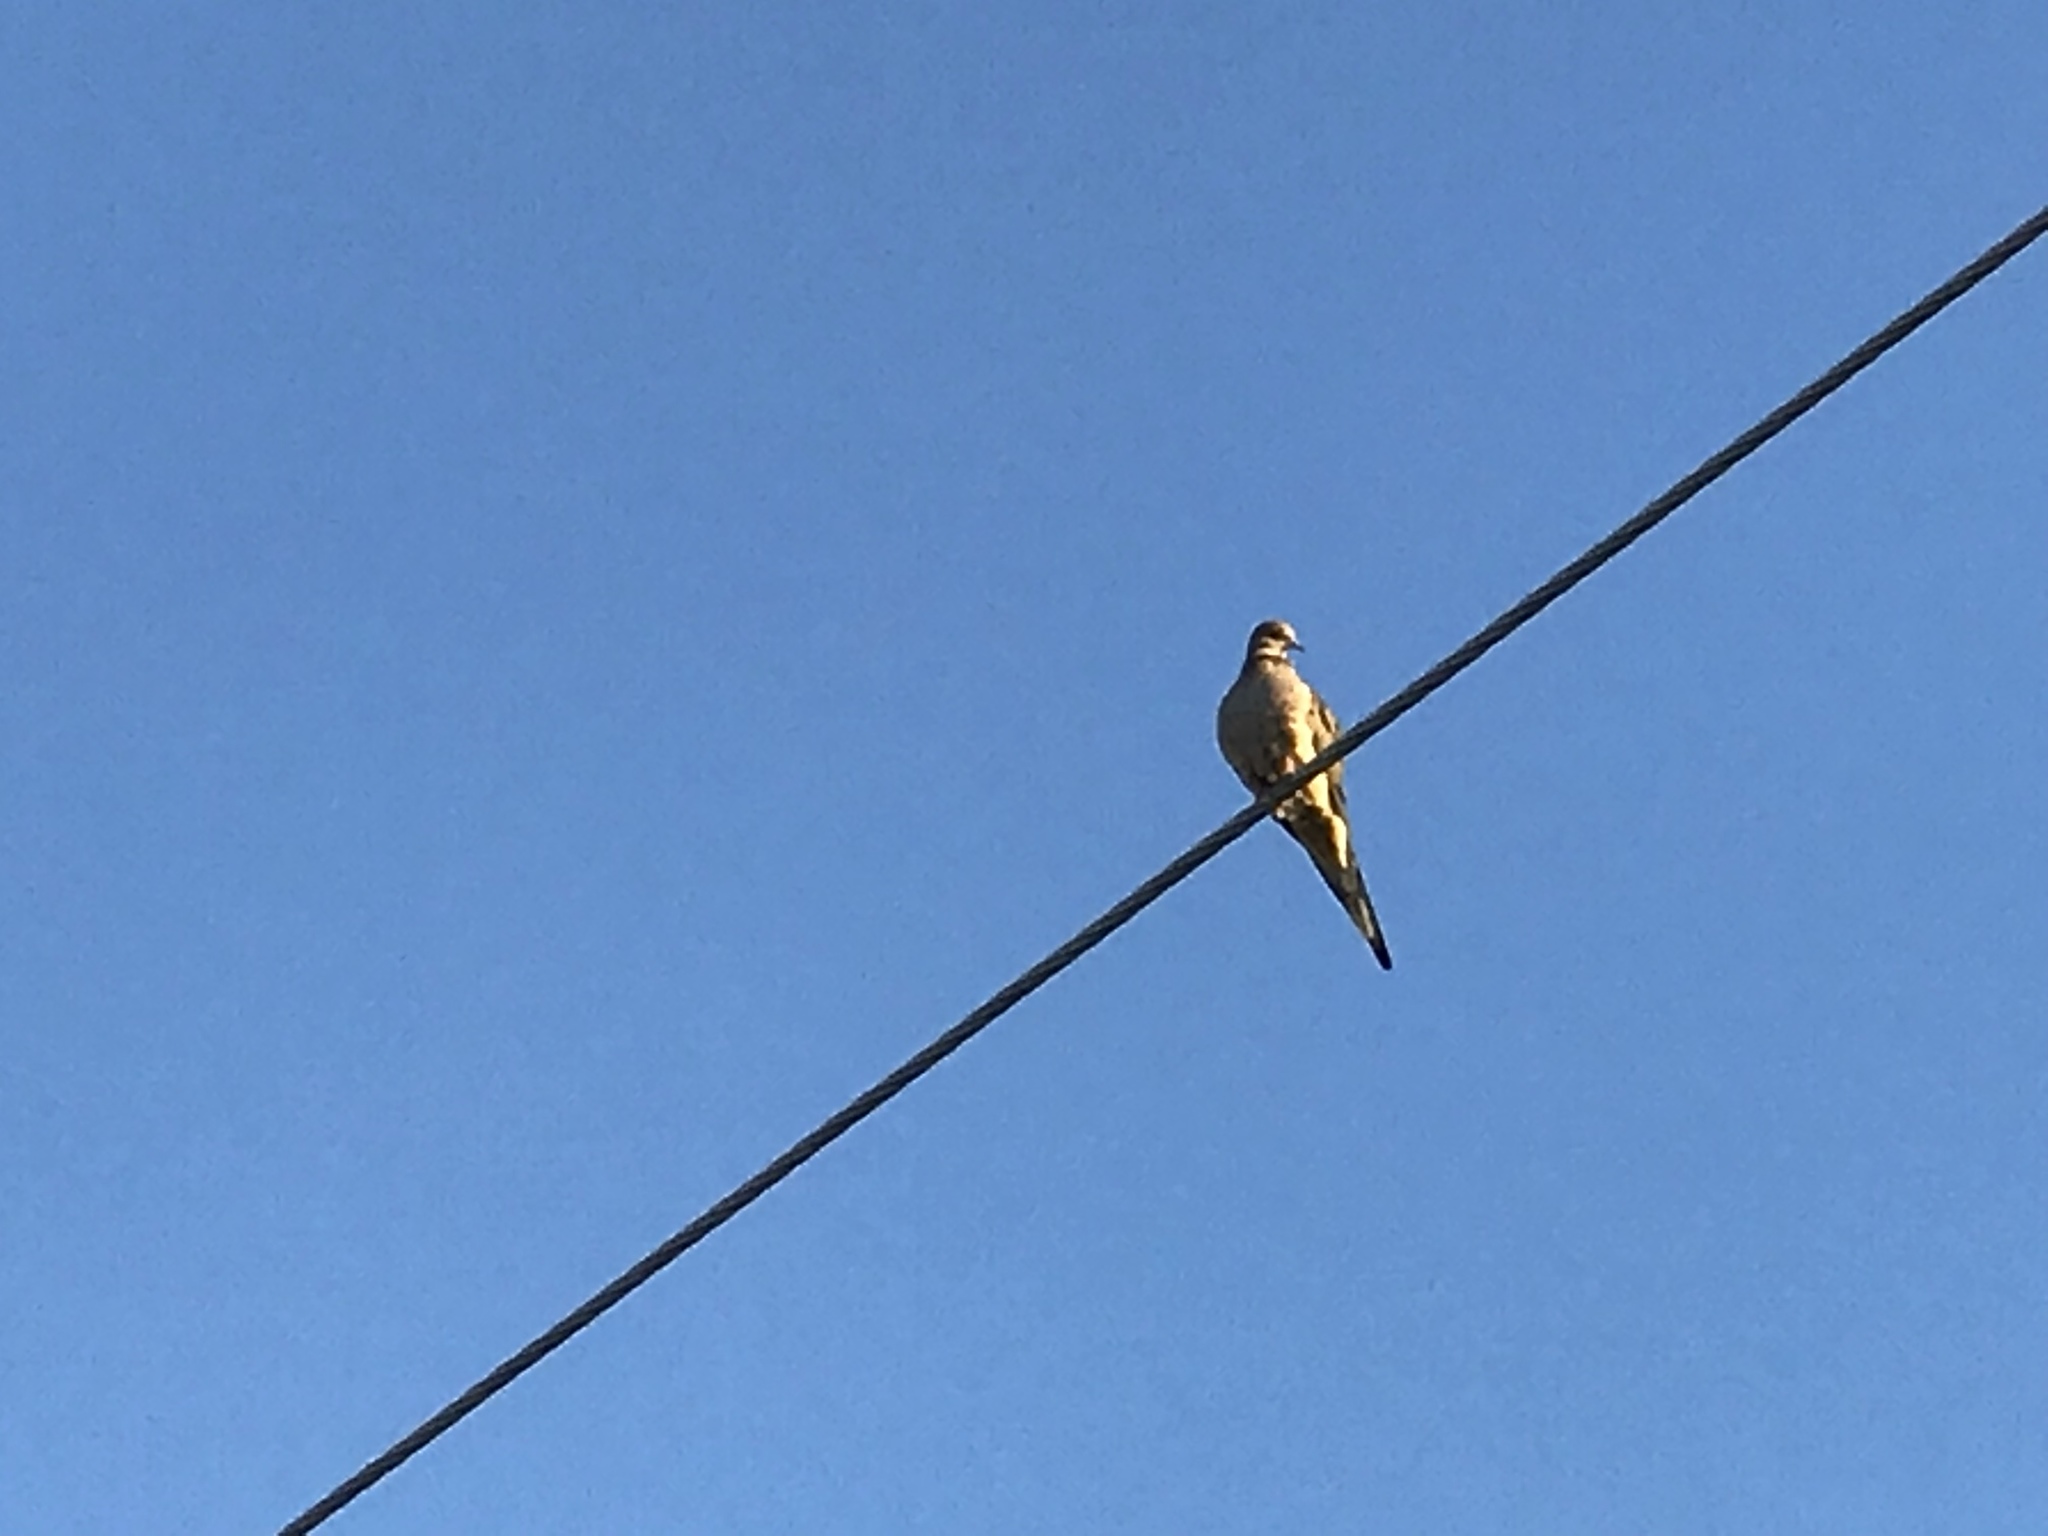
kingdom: Animalia
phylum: Chordata
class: Aves
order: Columbiformes
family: Columbidae
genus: Zenaida
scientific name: Zenaida macroura
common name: Mourning dove
